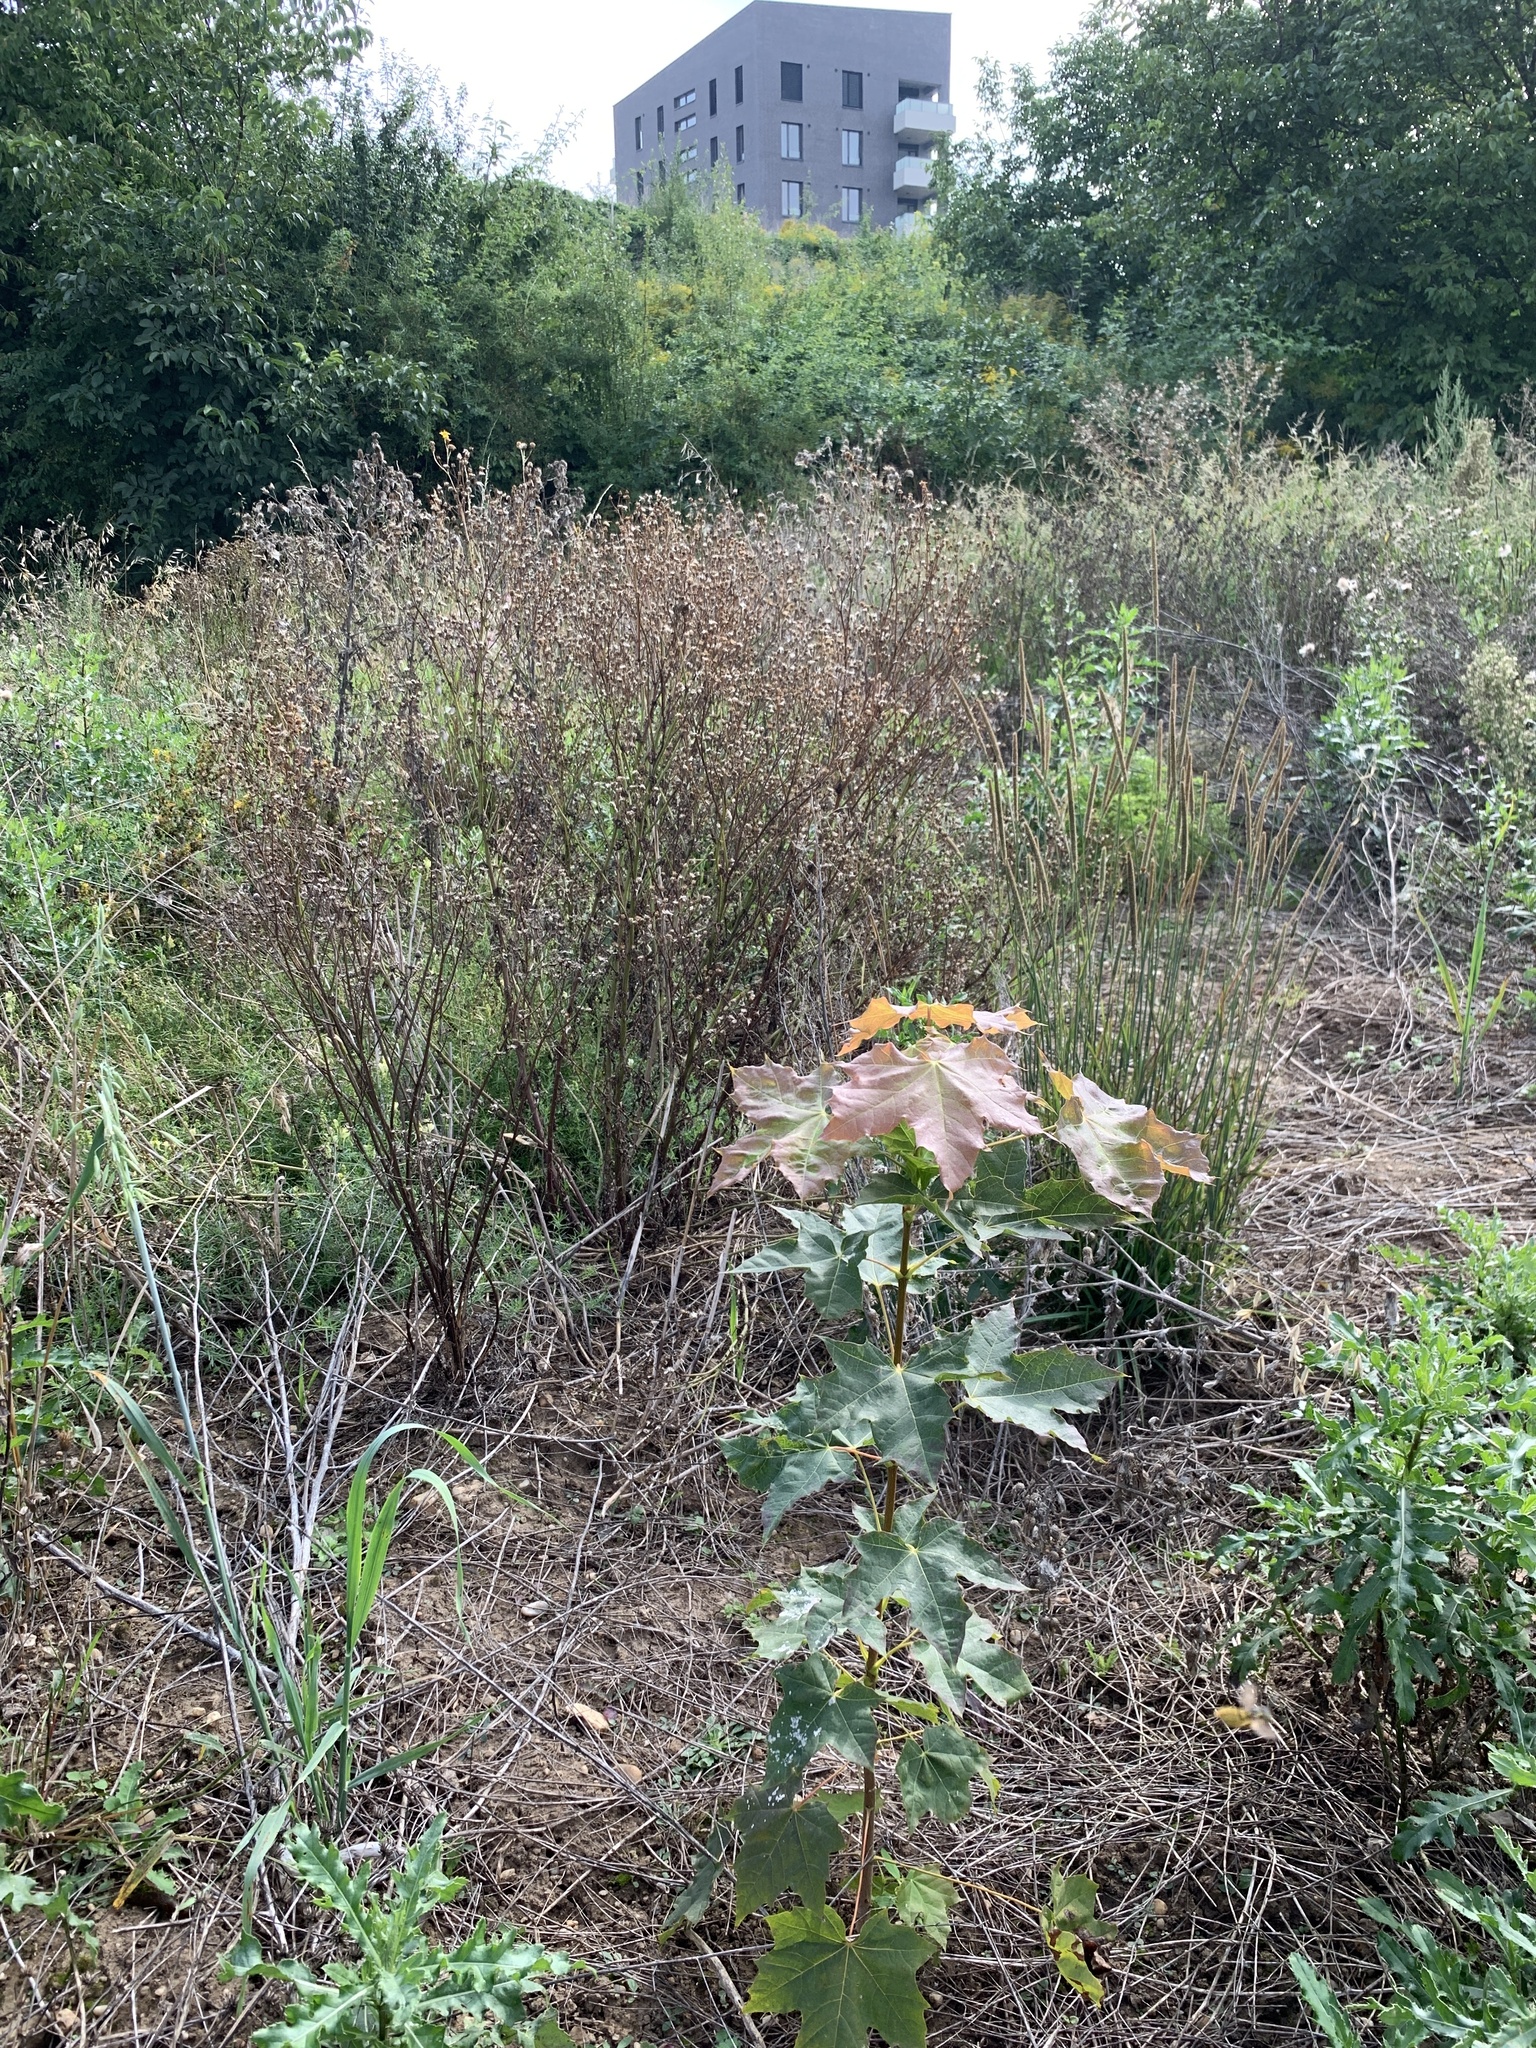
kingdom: Plantae
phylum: Tracheophyta
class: Magnoliopsida
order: Sapindales
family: Sapindaceae
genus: Acer
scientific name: Acer platanoides
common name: Norway maple
